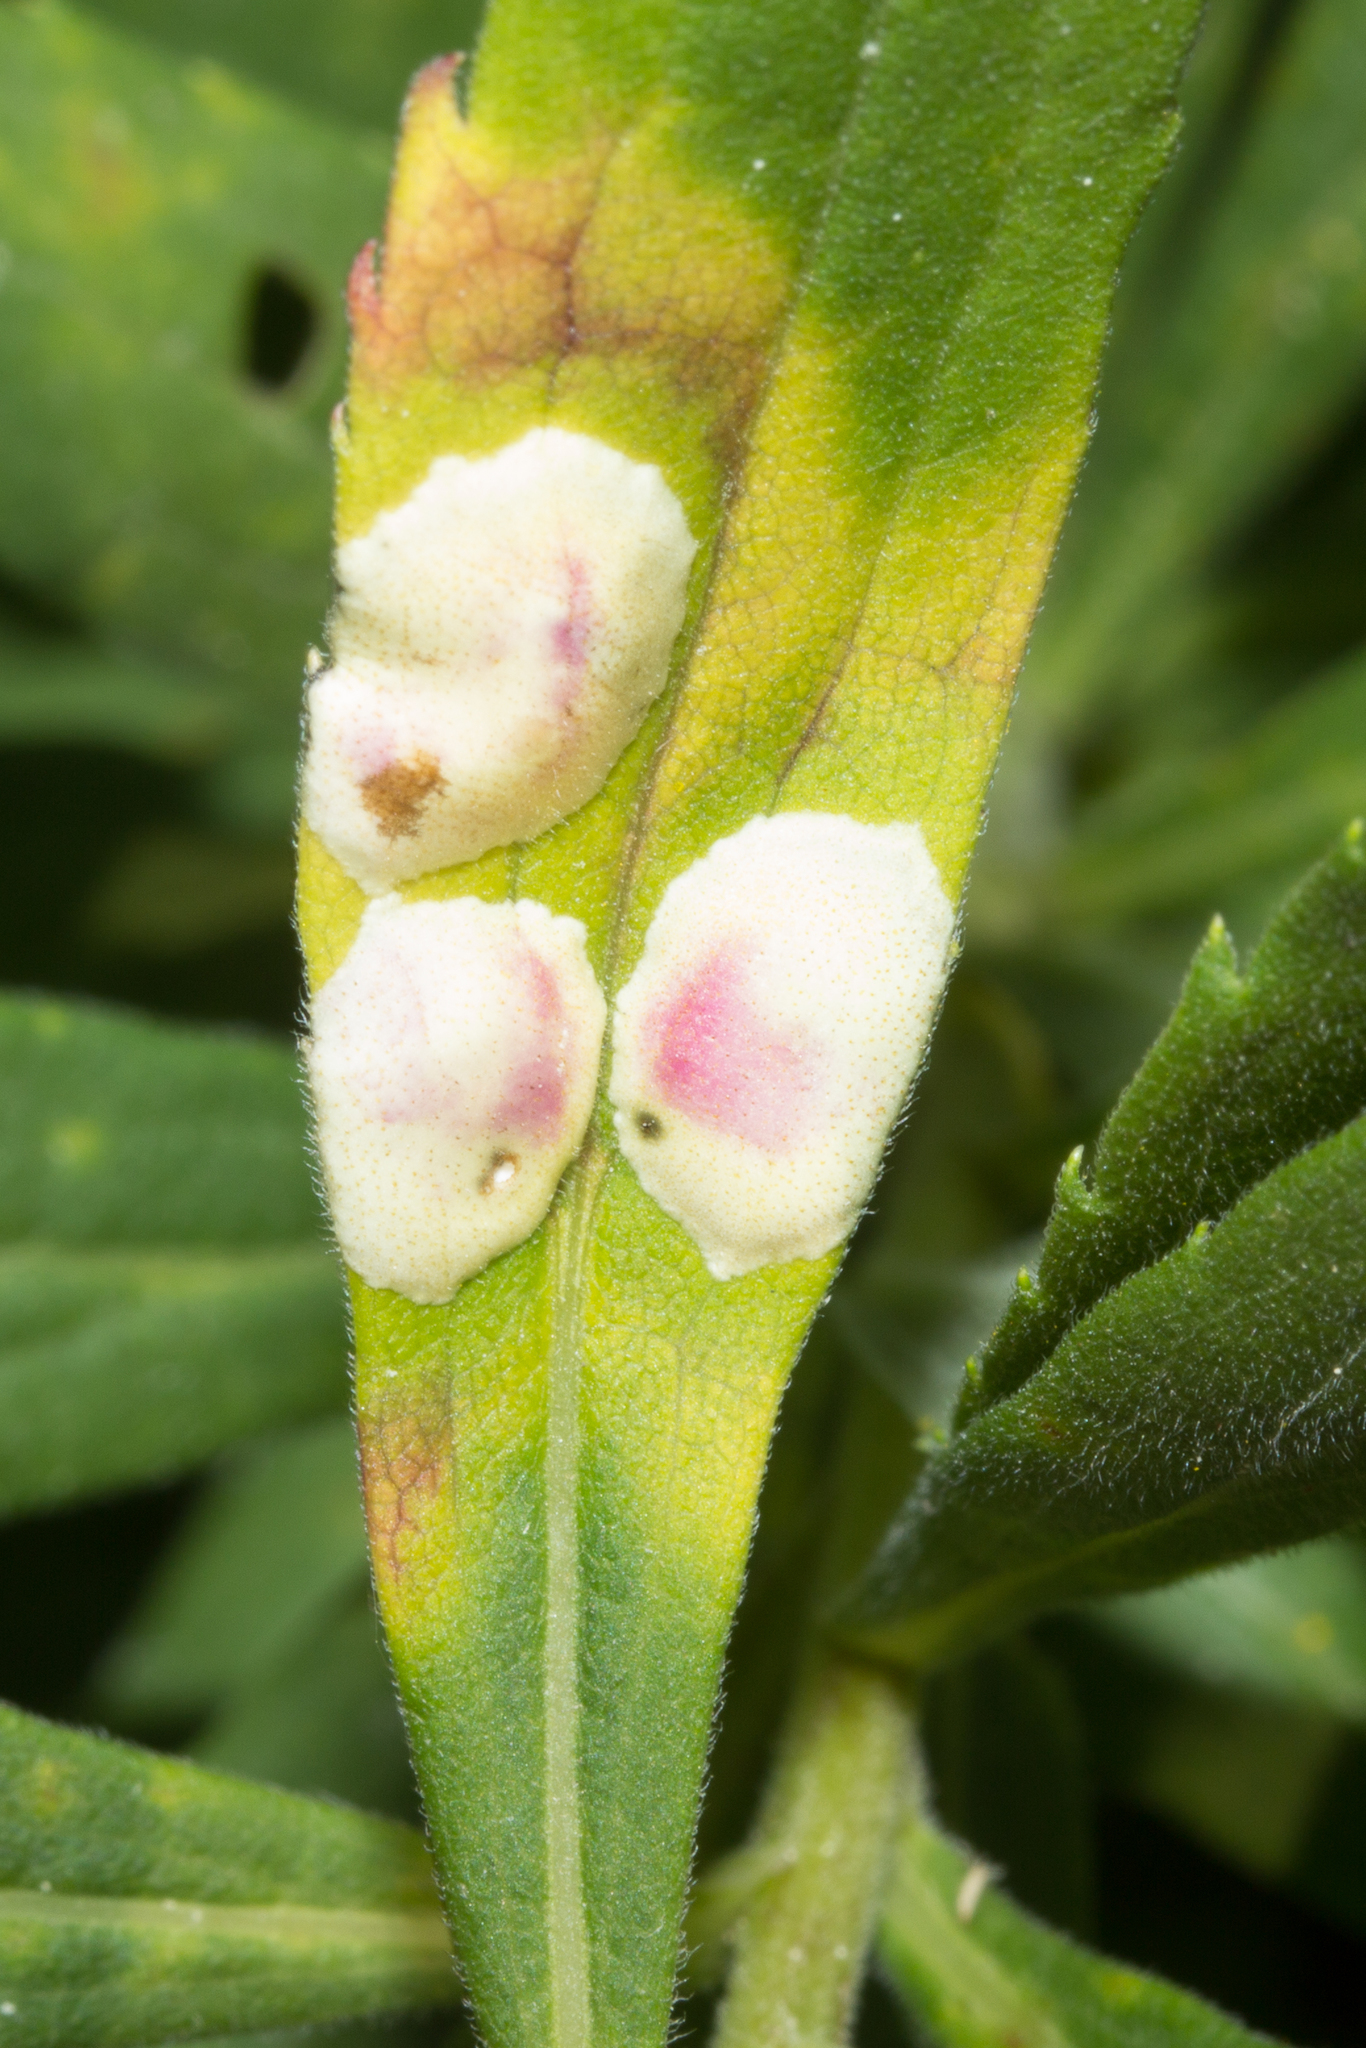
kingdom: Animalia
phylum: Arthropoda
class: Insecta
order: Diptera
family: Cecidomyiidae
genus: Asteromyia
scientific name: Asteromyia carbonifera
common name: Carbonifera goldenrod gall midge
